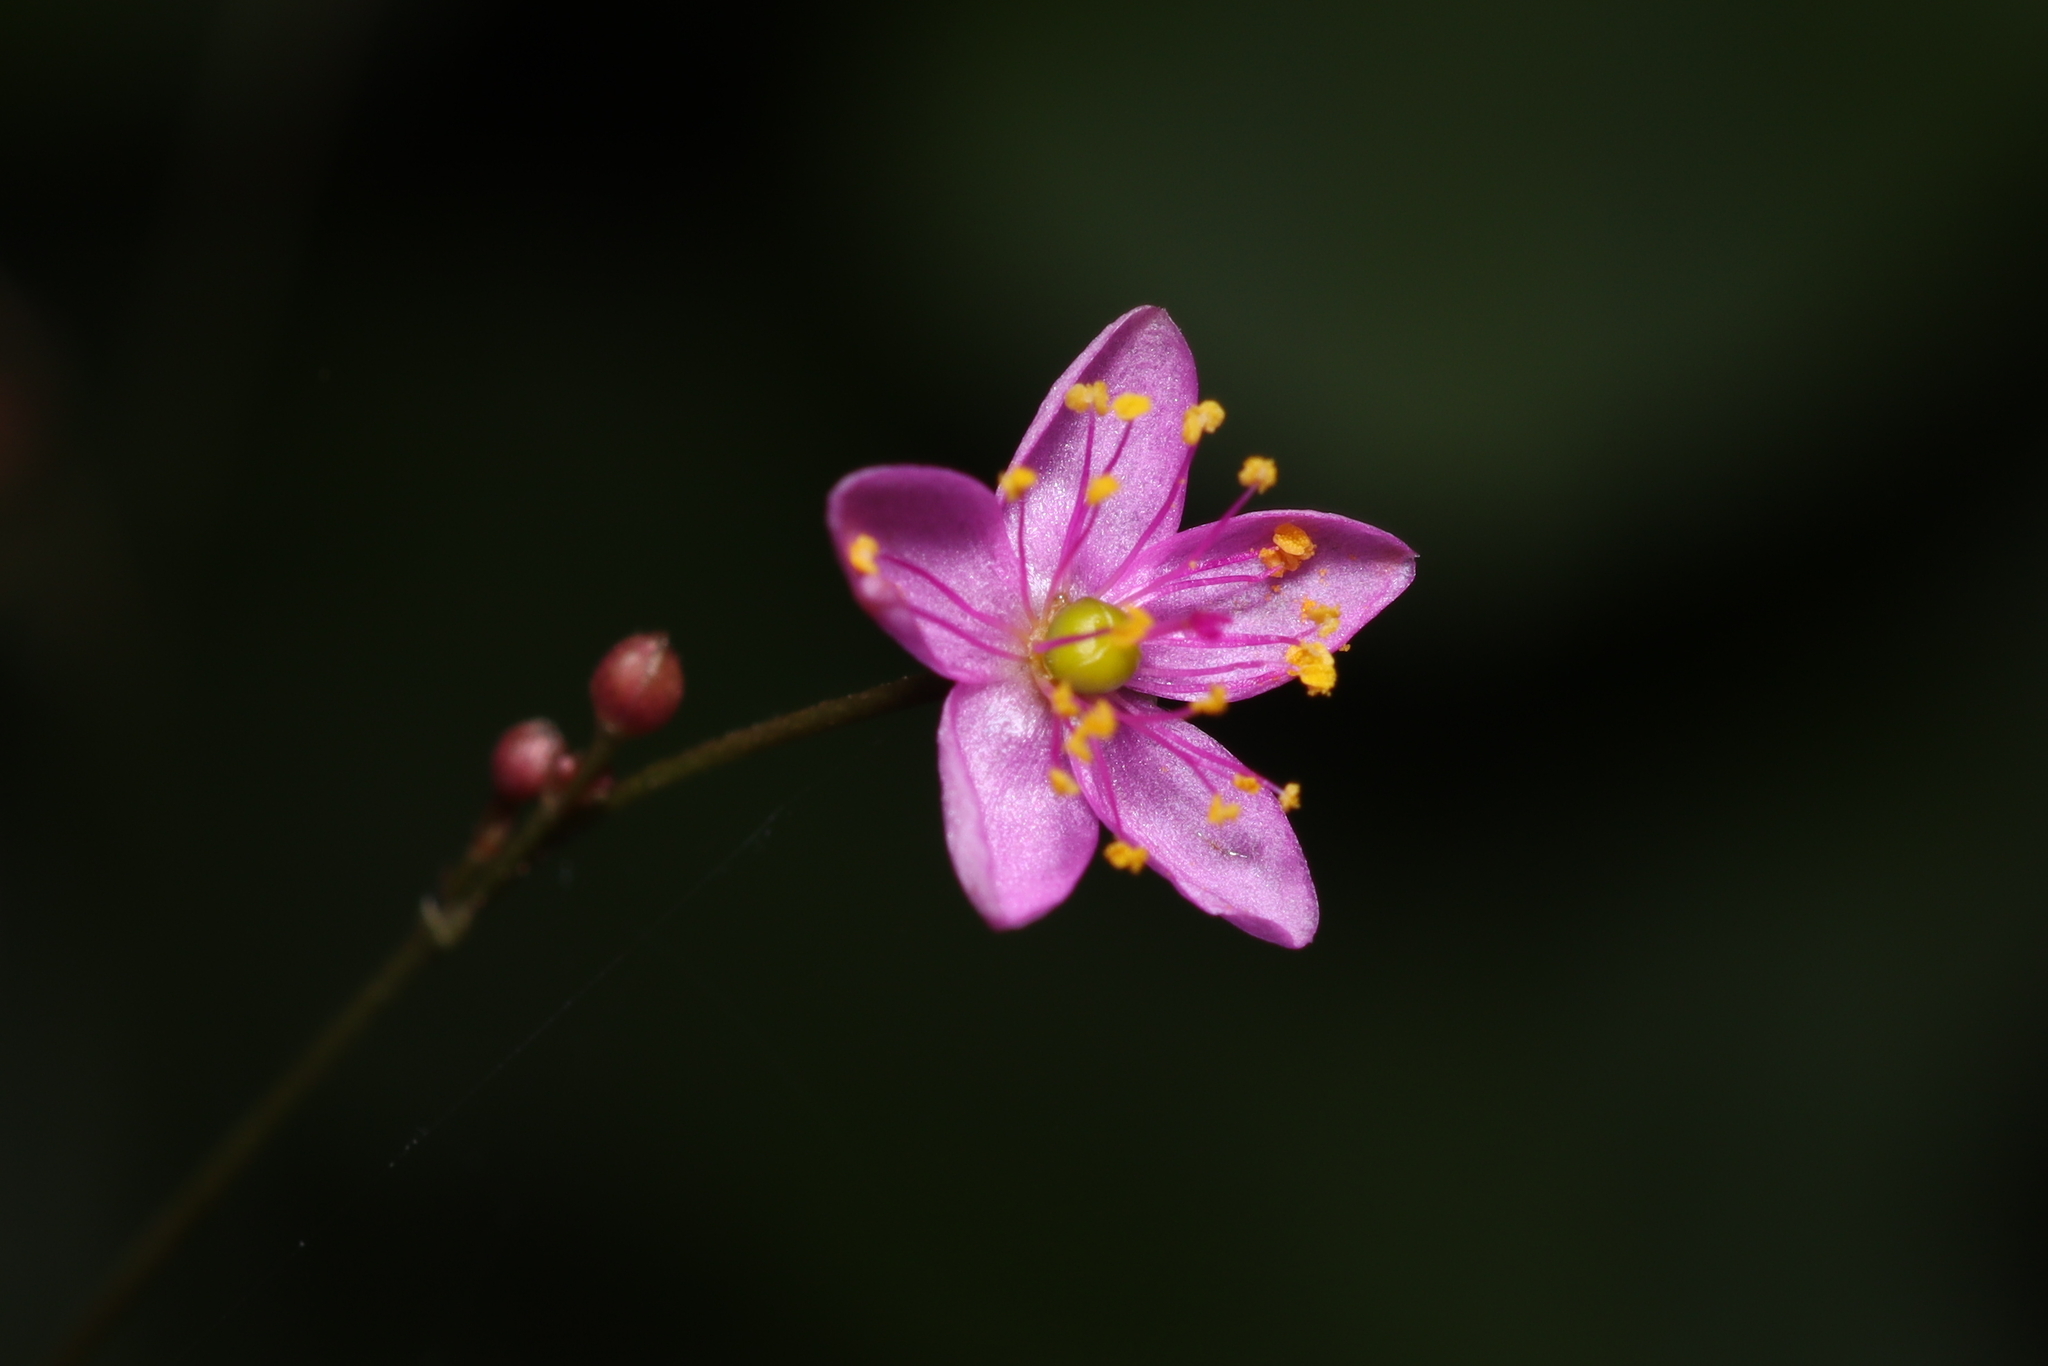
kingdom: Plantae
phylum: Tracheophyta
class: Magnoliopsida
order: Caryophyllales
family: Talinaceae
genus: Talinum
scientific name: Talinum paniculatum
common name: Jewels of opar
